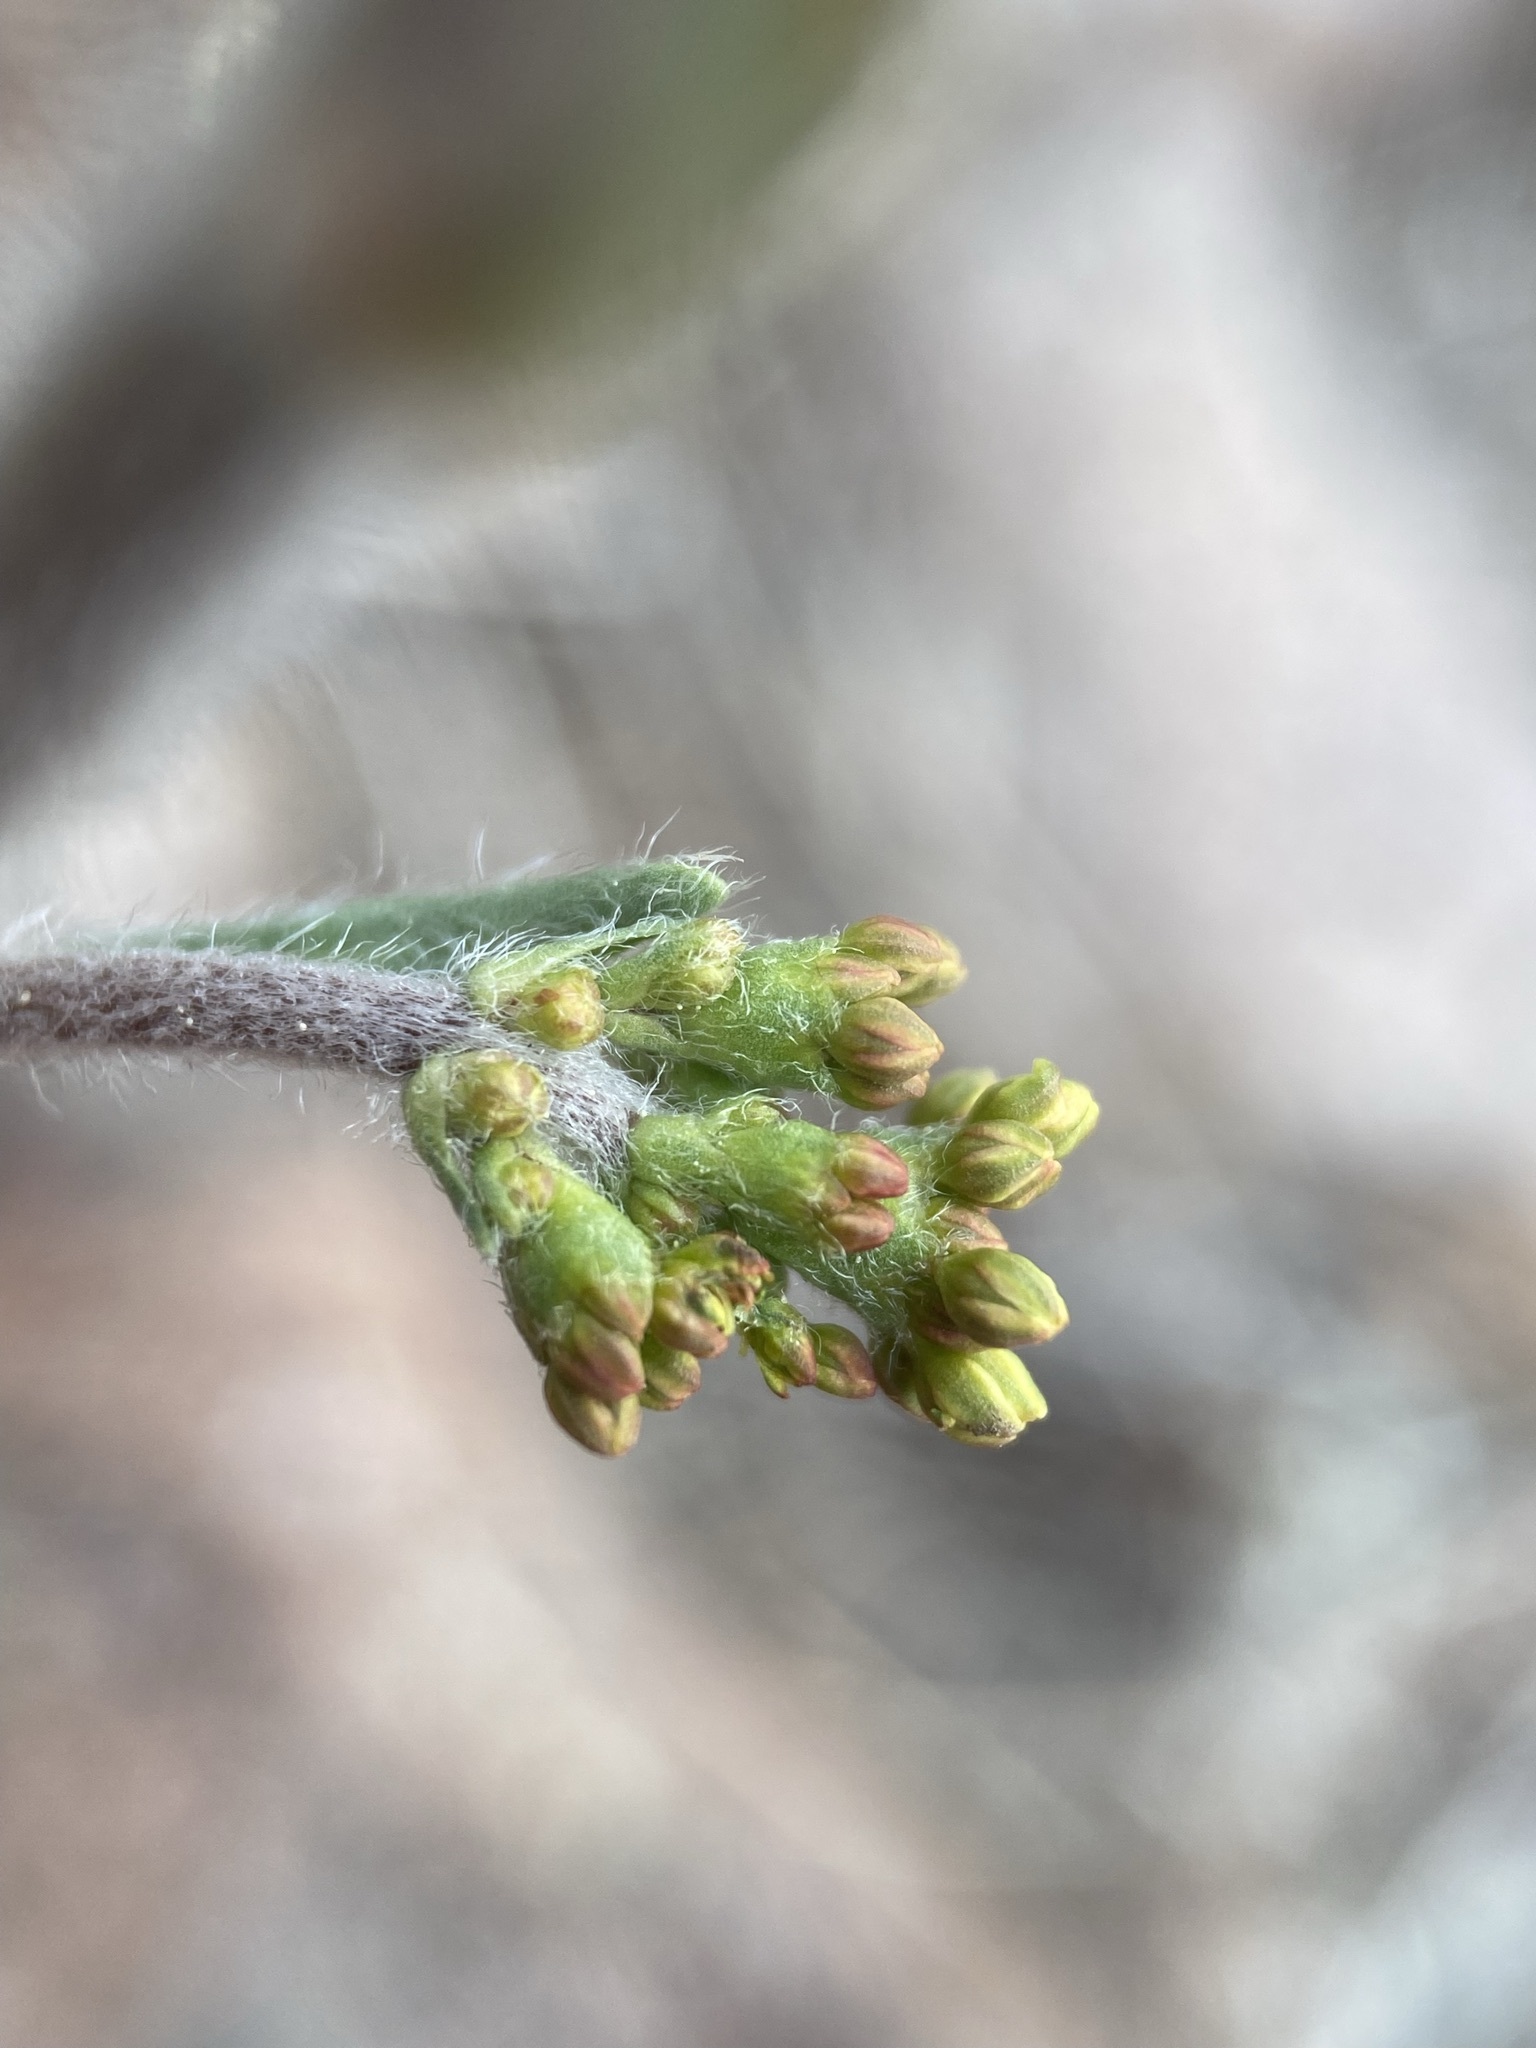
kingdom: Plantae
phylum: Tracheophyta
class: Magnoliopsida
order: Caryophyllales
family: Polygonaceae
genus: Eriogonum
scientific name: Eriogonum alatum
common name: Winged eriogonum
